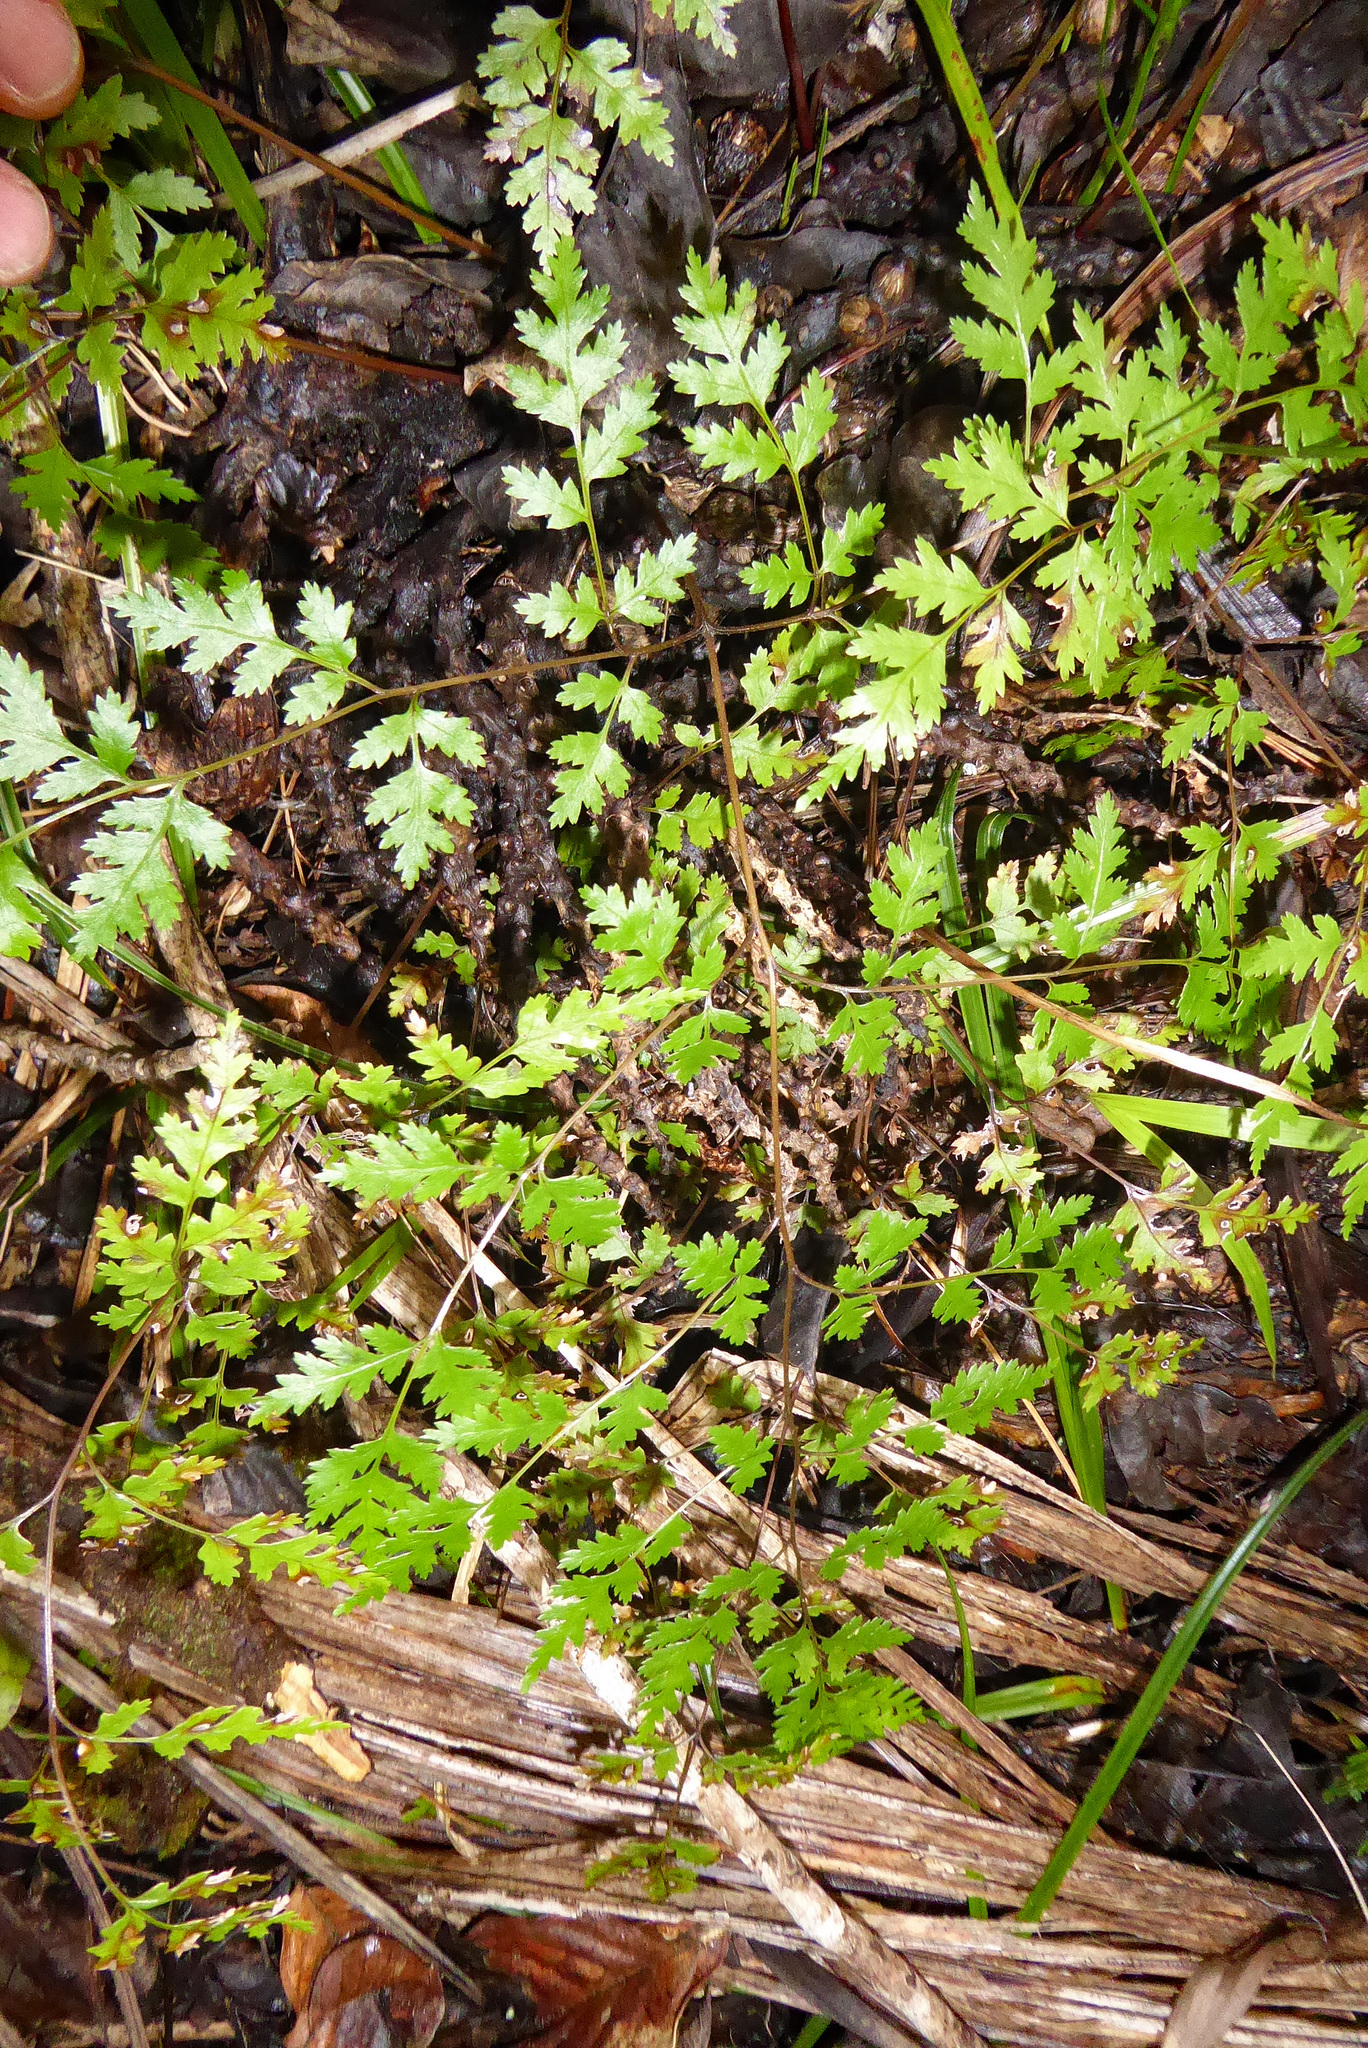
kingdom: Plantae
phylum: Tracheophyta
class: Polypodiopsida
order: Polypodiales
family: Pteridaceae
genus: Pteris
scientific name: Pteris saxatilis
